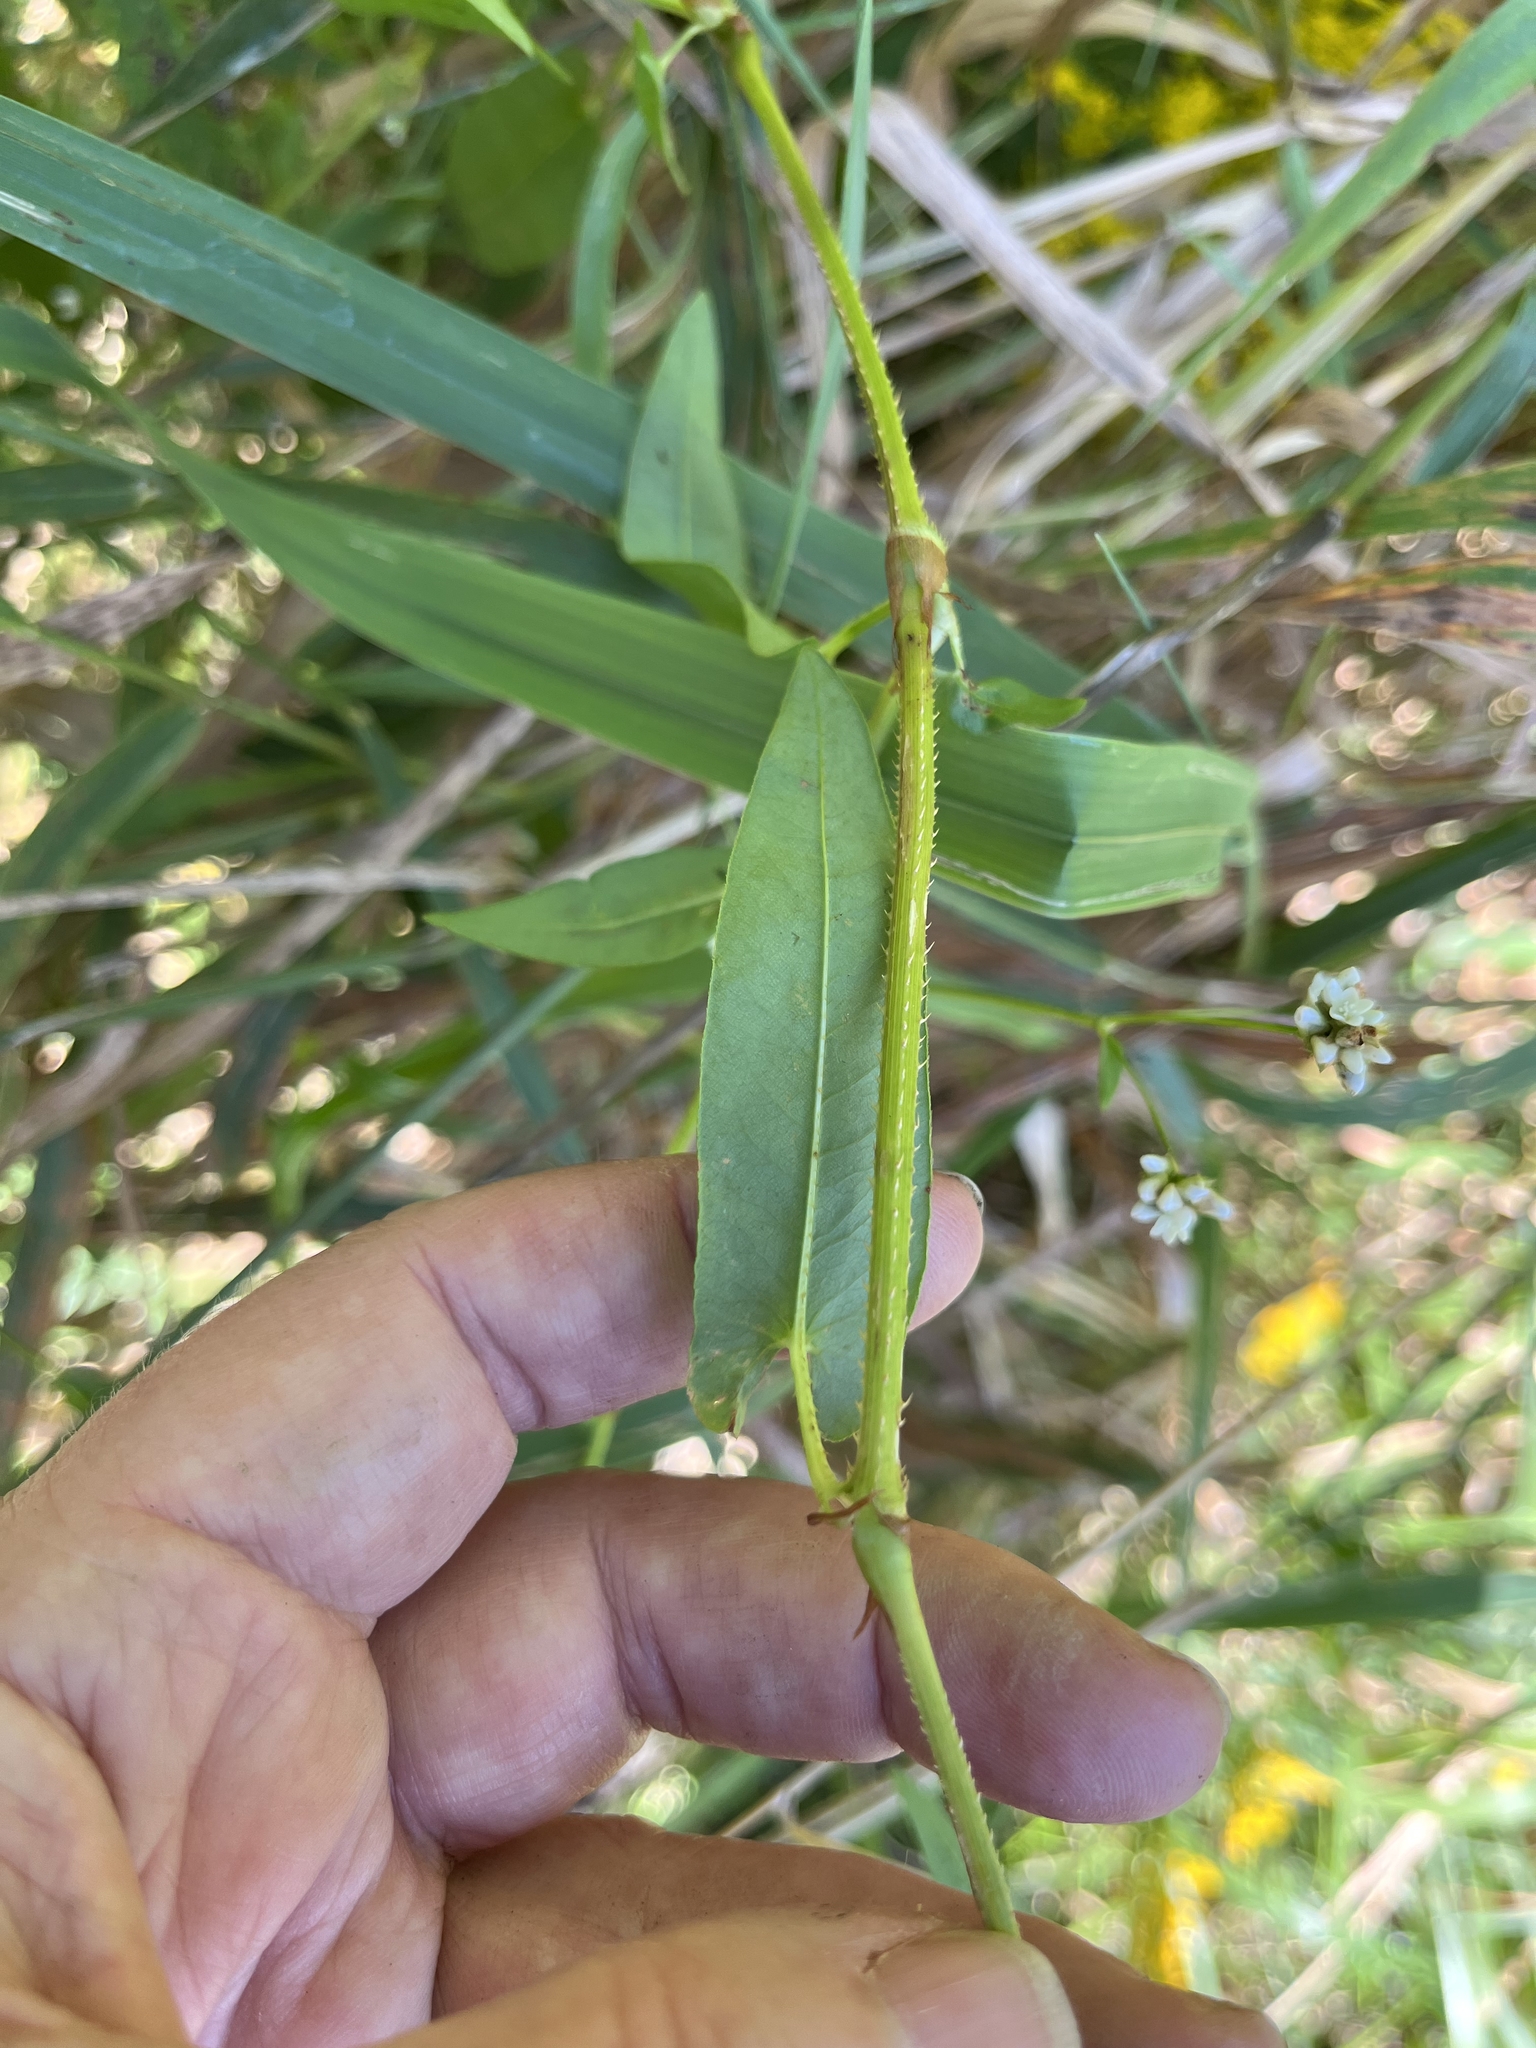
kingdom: Plantae
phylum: Tracheophyta
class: Magnoliopsida
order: Caryophyllales
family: Polygonaceae
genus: Persicaria
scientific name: Persicaria sagittata
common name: American tearthumb
